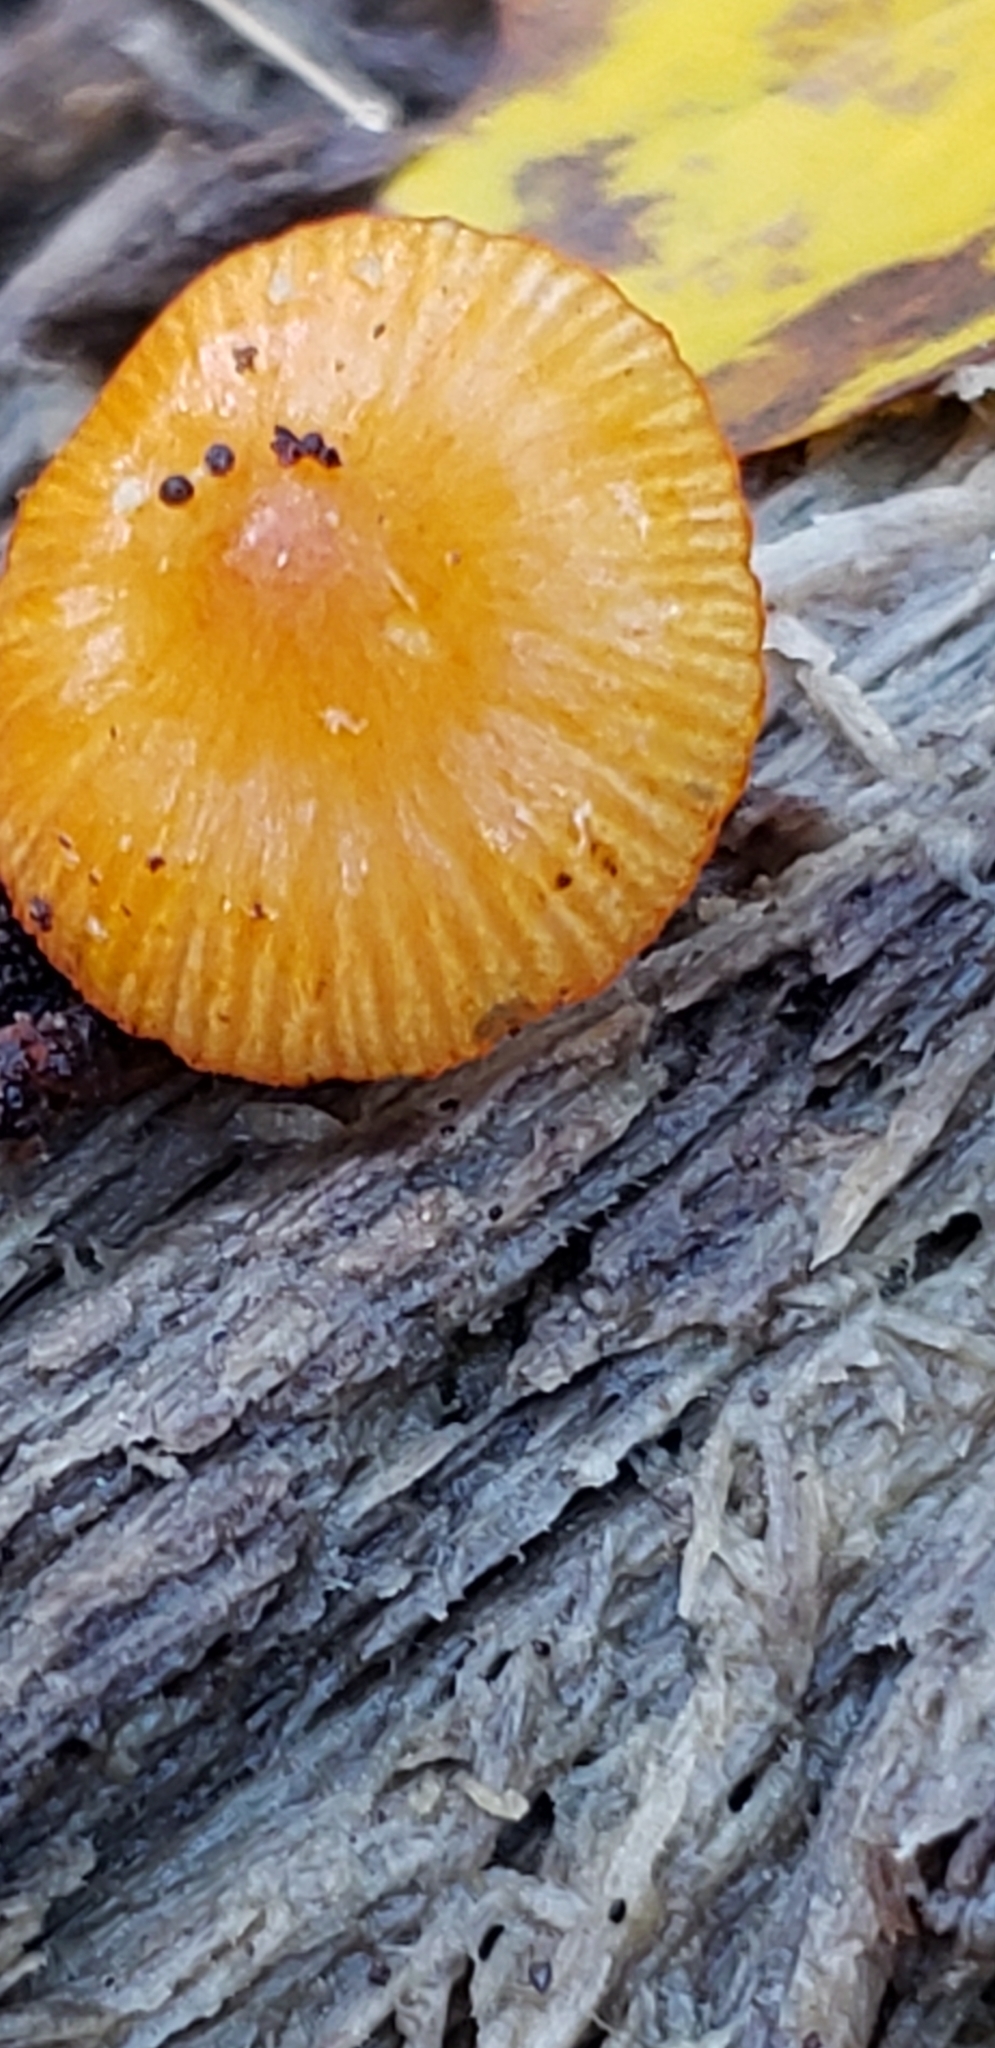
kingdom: Fungi
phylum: Basidiomycota
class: Agaricomycetes
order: Agaricales
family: Mycenaceae
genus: Mycena
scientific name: Mycena leaiana
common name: Orange mycena
